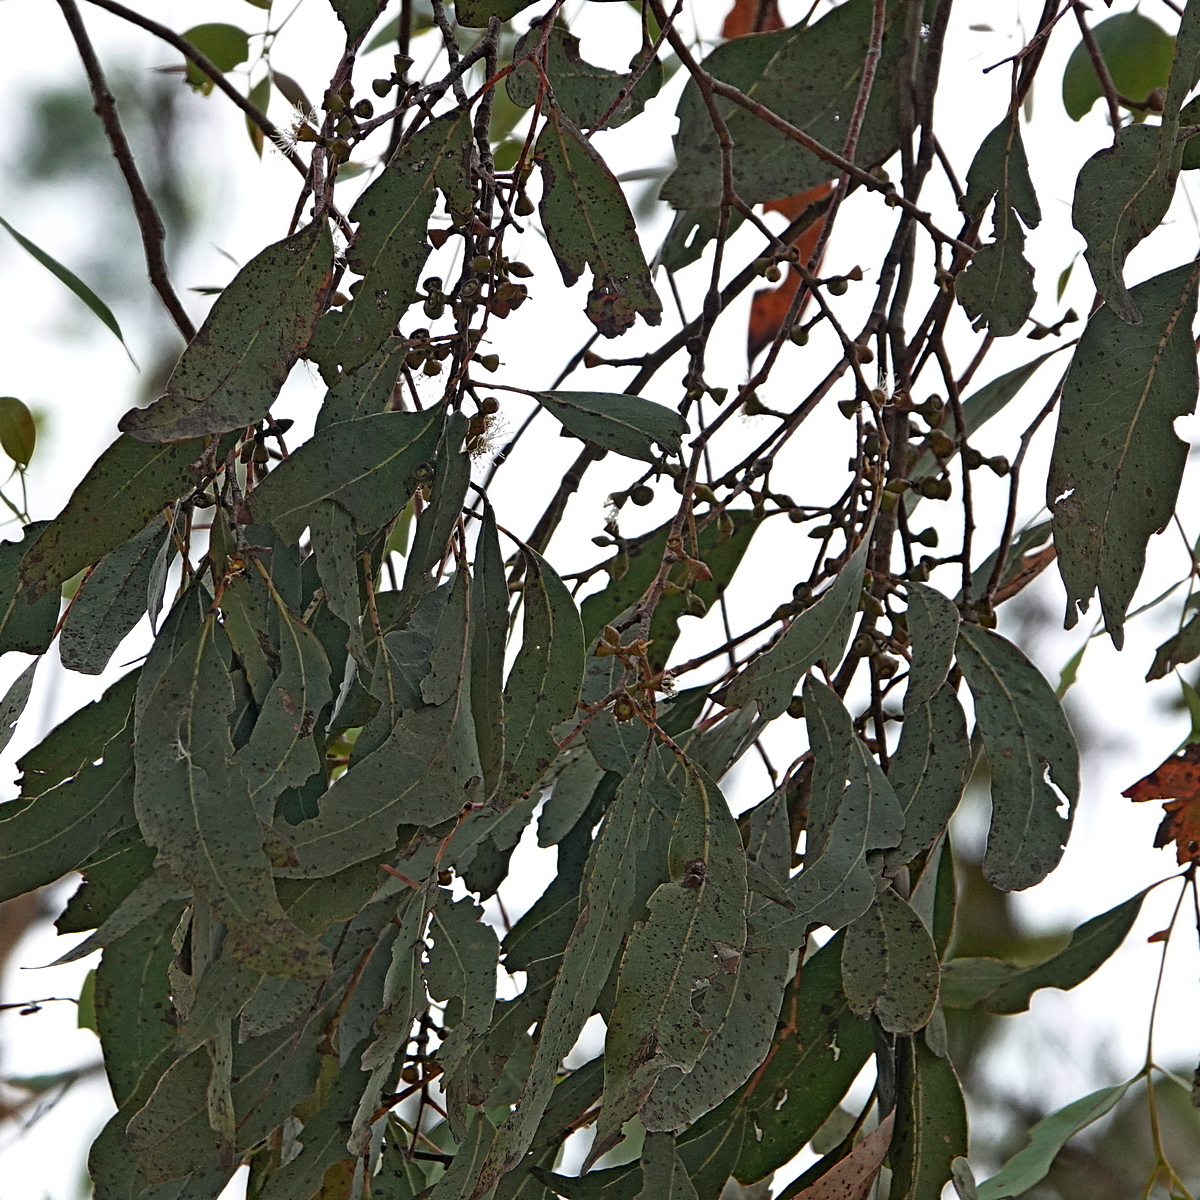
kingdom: Plantae
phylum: Tracheophyta
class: Magnoliopsida
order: Myrtales
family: Myrtaceae
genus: Eucalyptus
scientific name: Eucalyptus rubida
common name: Candlebark
